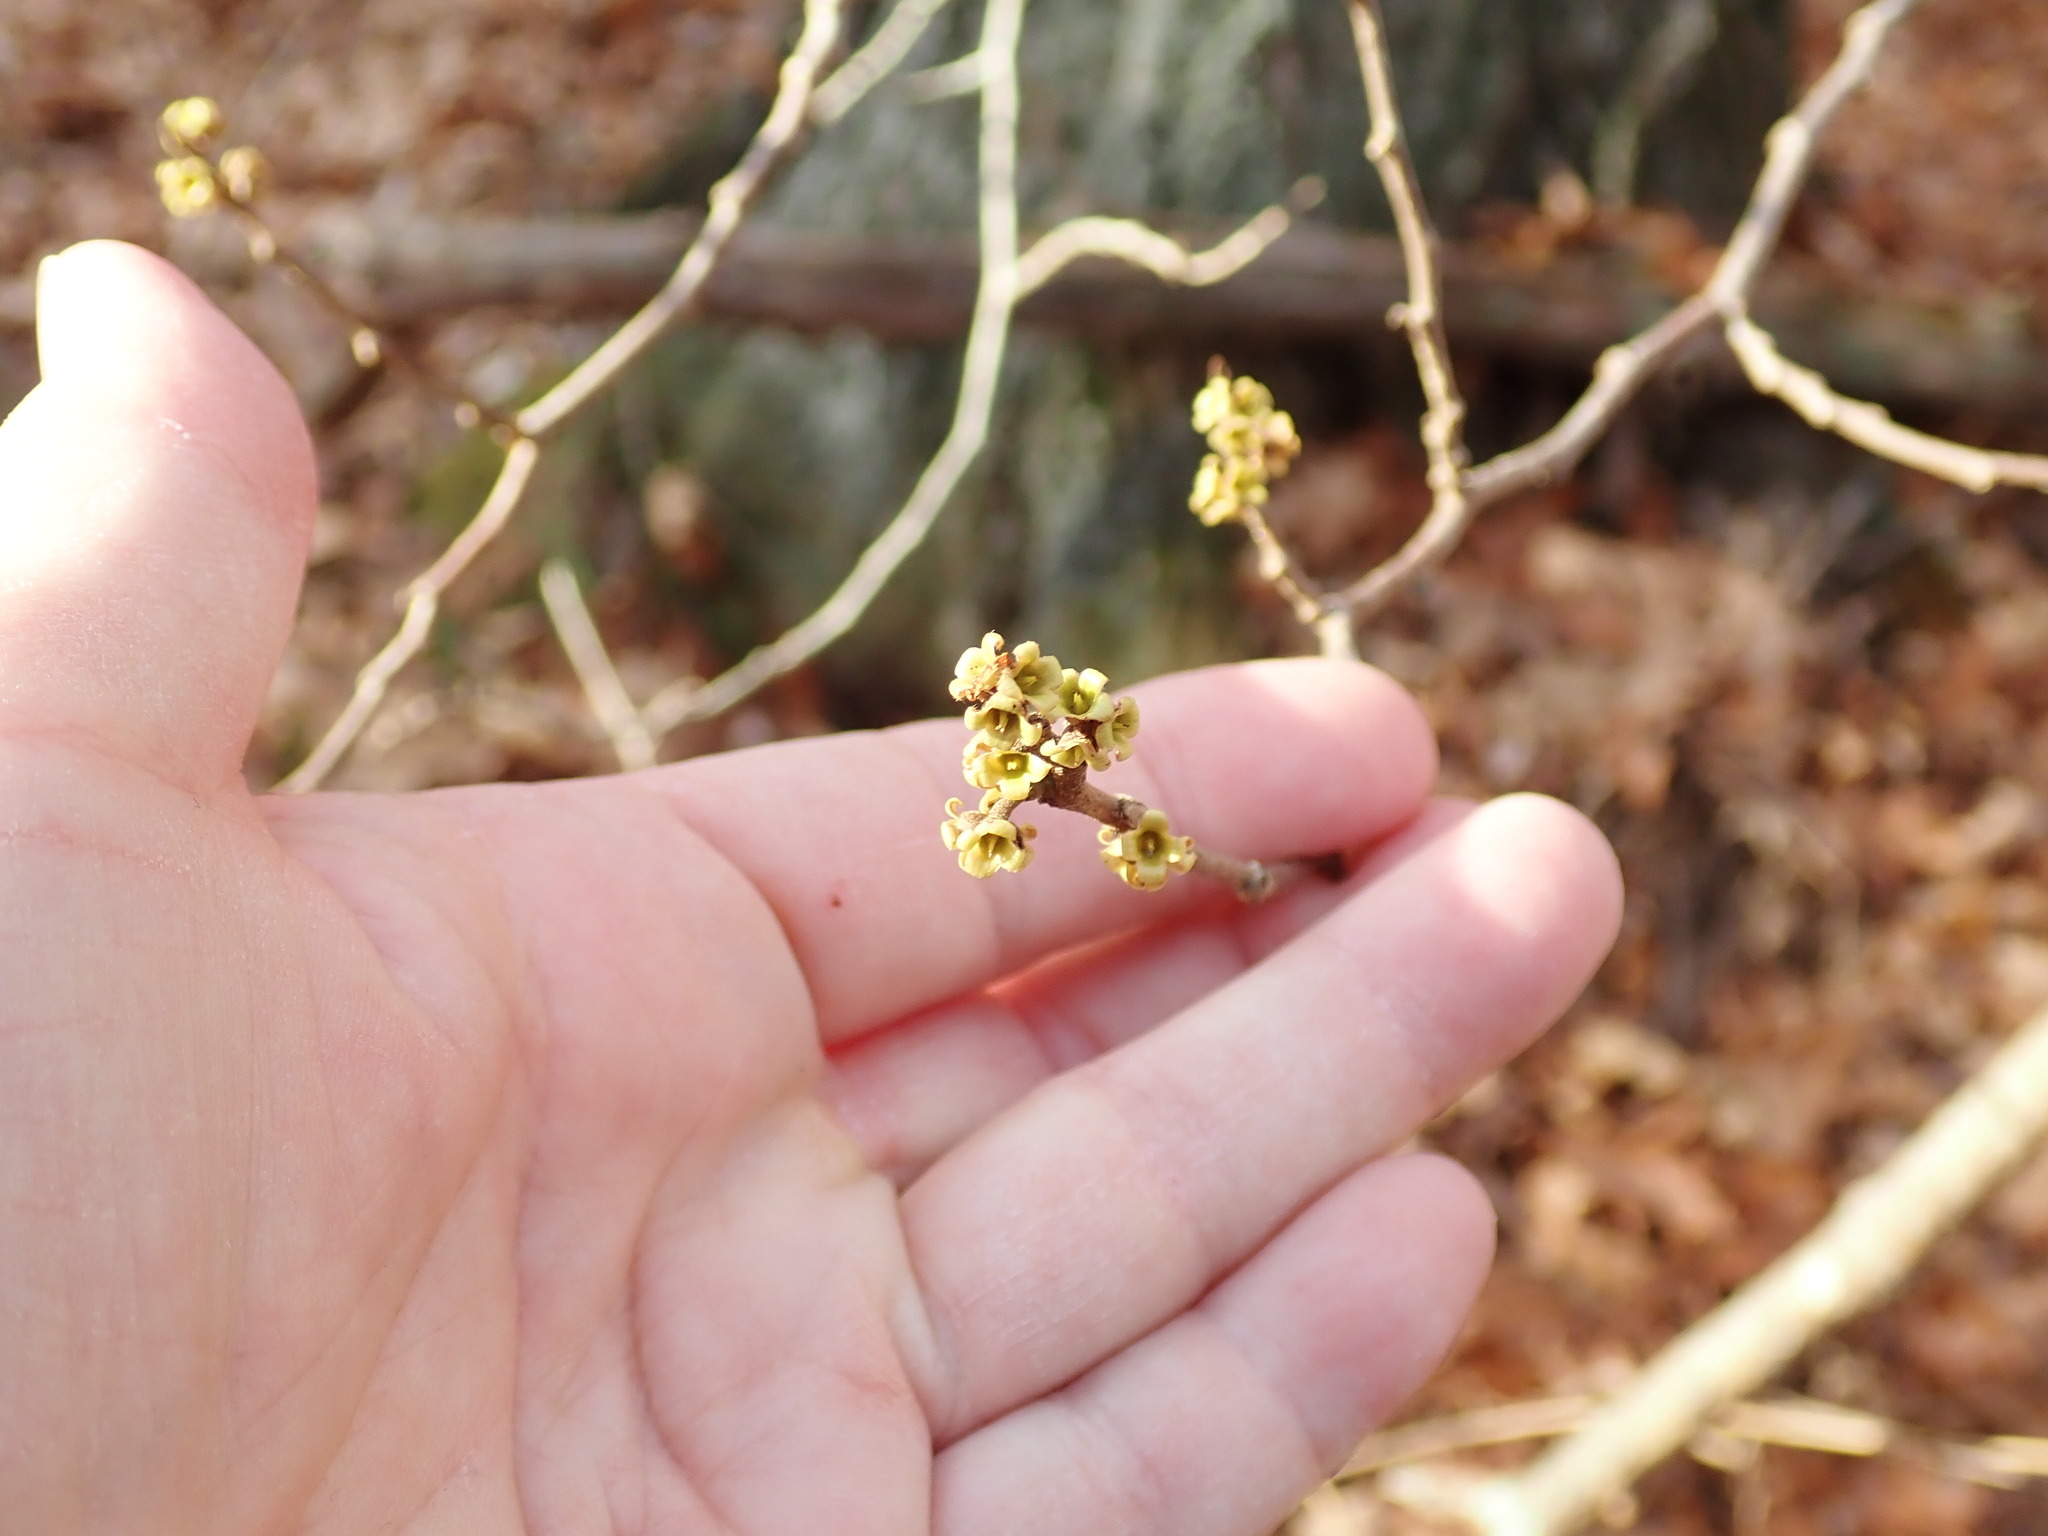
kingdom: Plantae
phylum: Tracheophyta
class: Magnoliopsida
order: Saxifragales
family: Hamamelidaceae
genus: Hamamelis
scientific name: Hamamelis virginiana
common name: Witch-hazel
